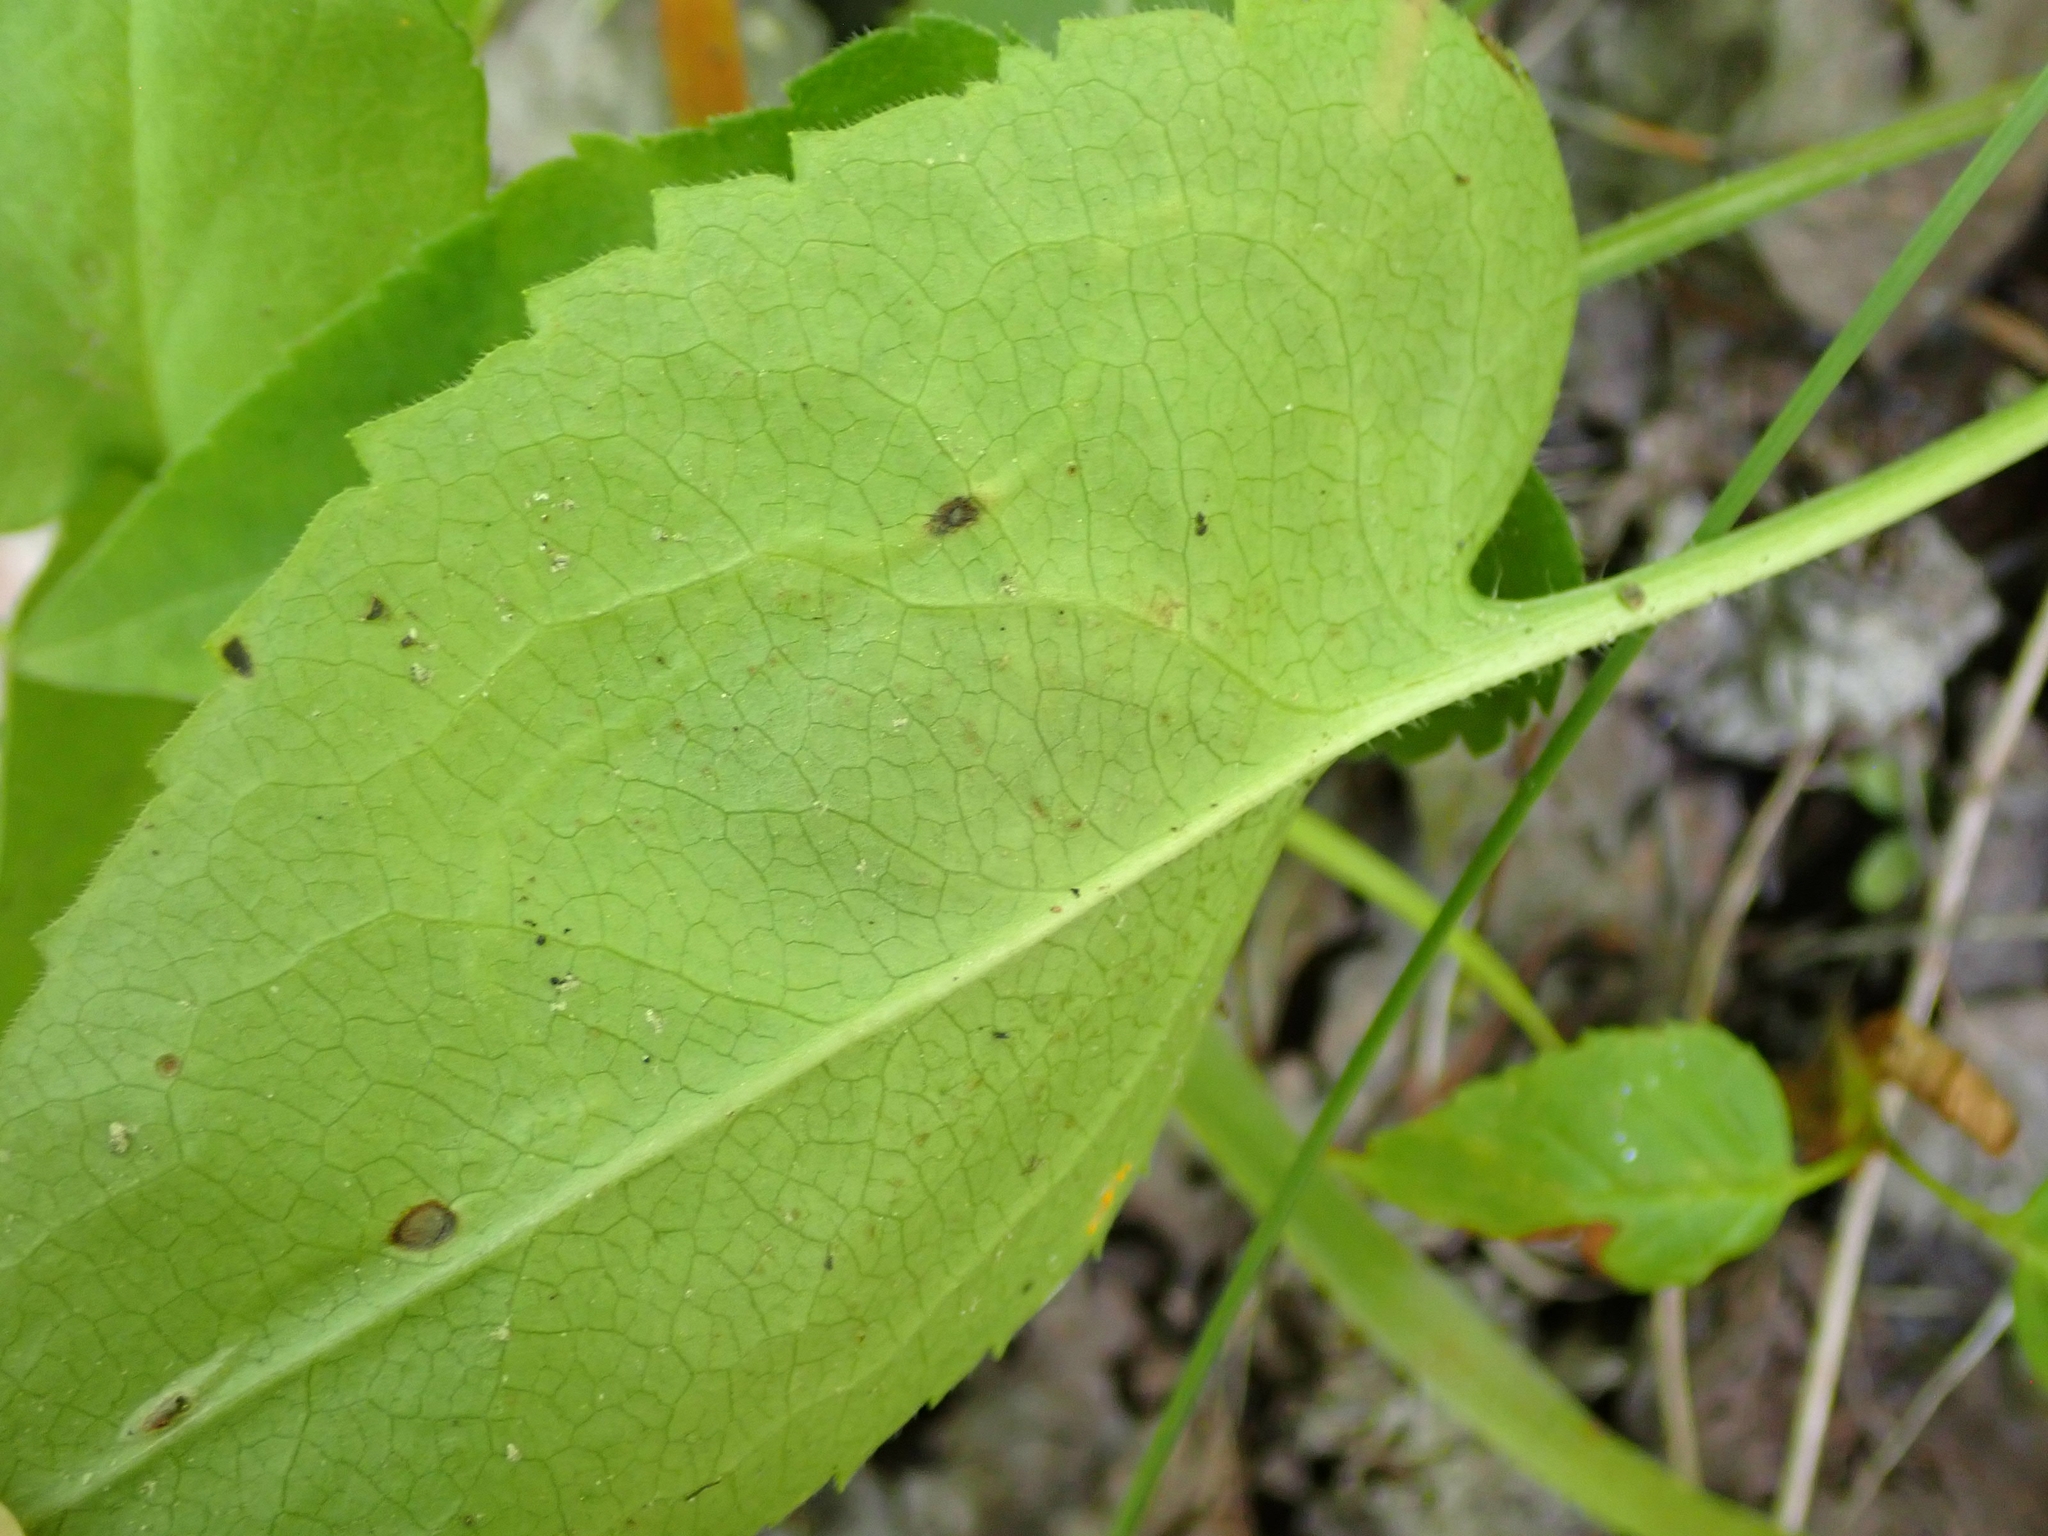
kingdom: Animalia
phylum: Arthropoda
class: Insecta
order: Diptera
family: Agromyzidae
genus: Ophiomyia
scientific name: Ophiomyia parda
